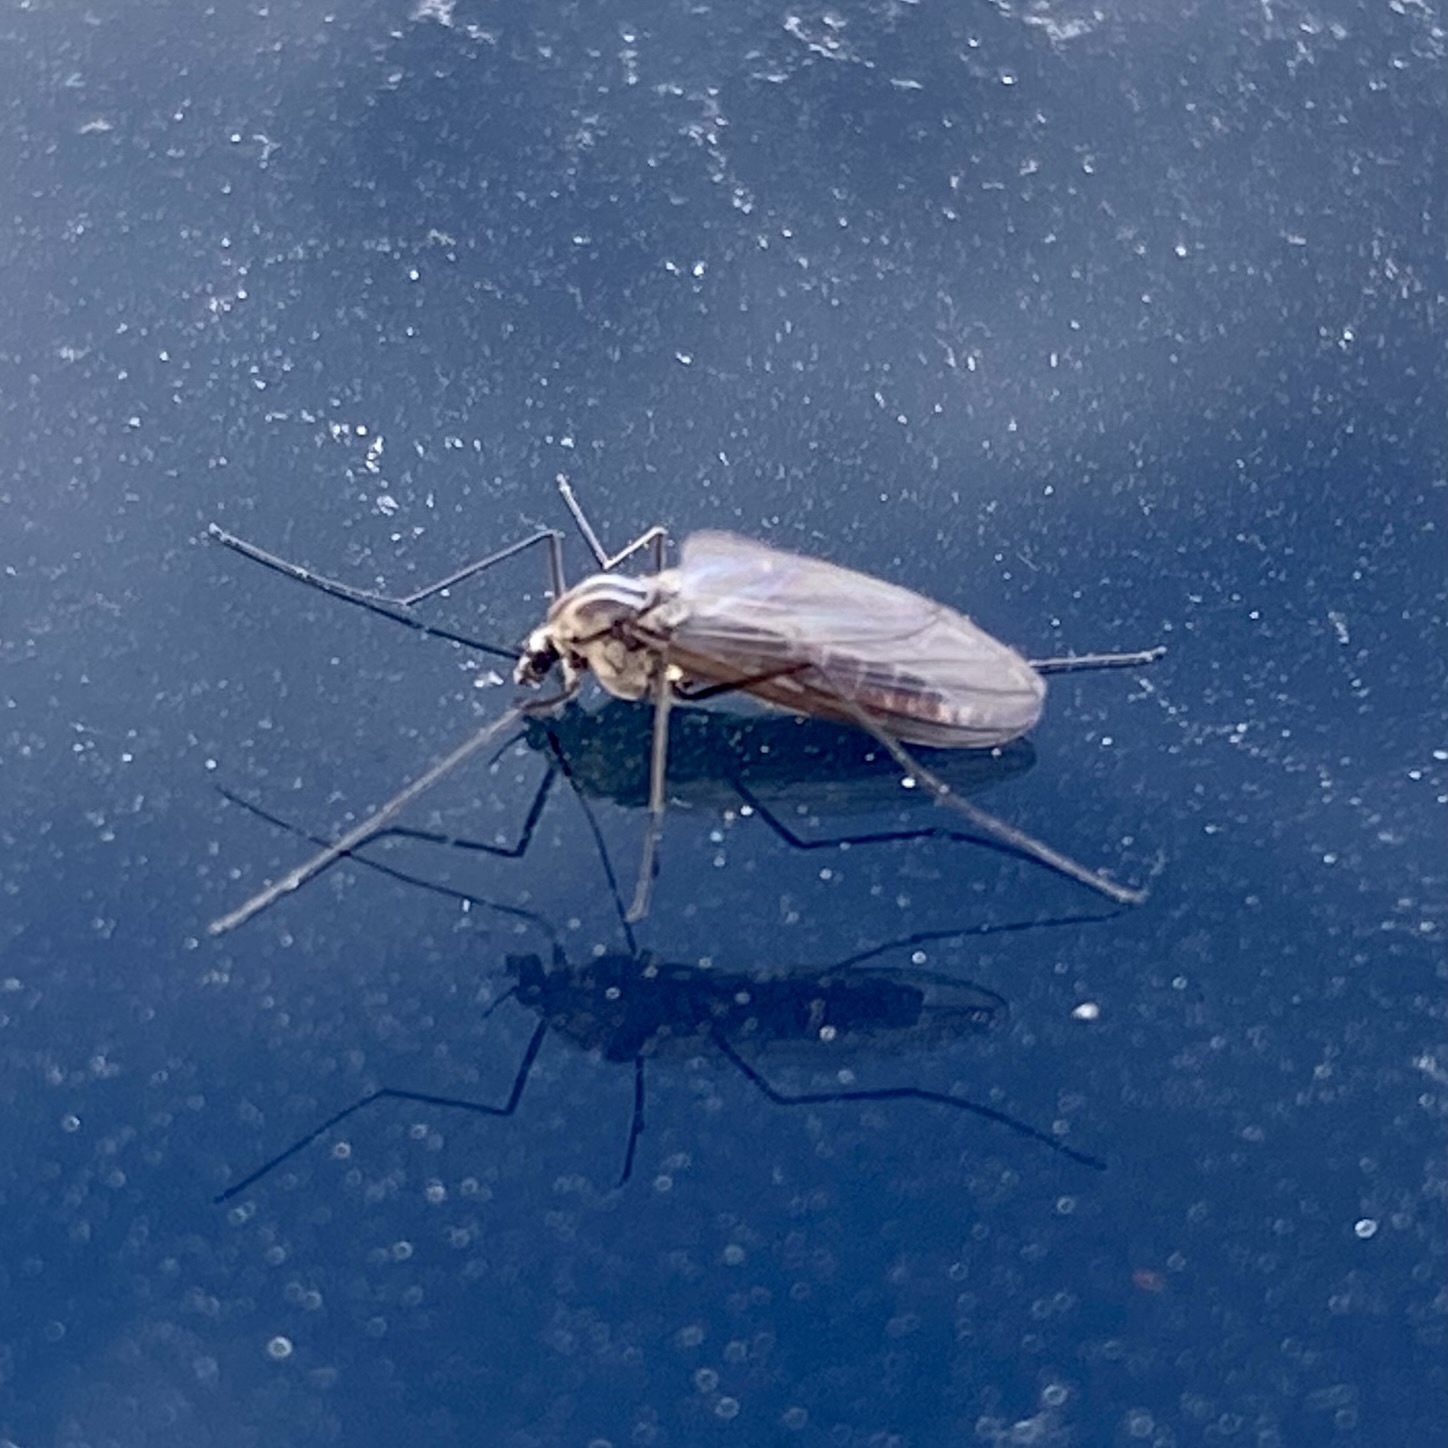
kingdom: Animalia
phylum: Arthropoda
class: Insecta
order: Diptera
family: Chironomidae
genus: Diamesa
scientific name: Diamesa
